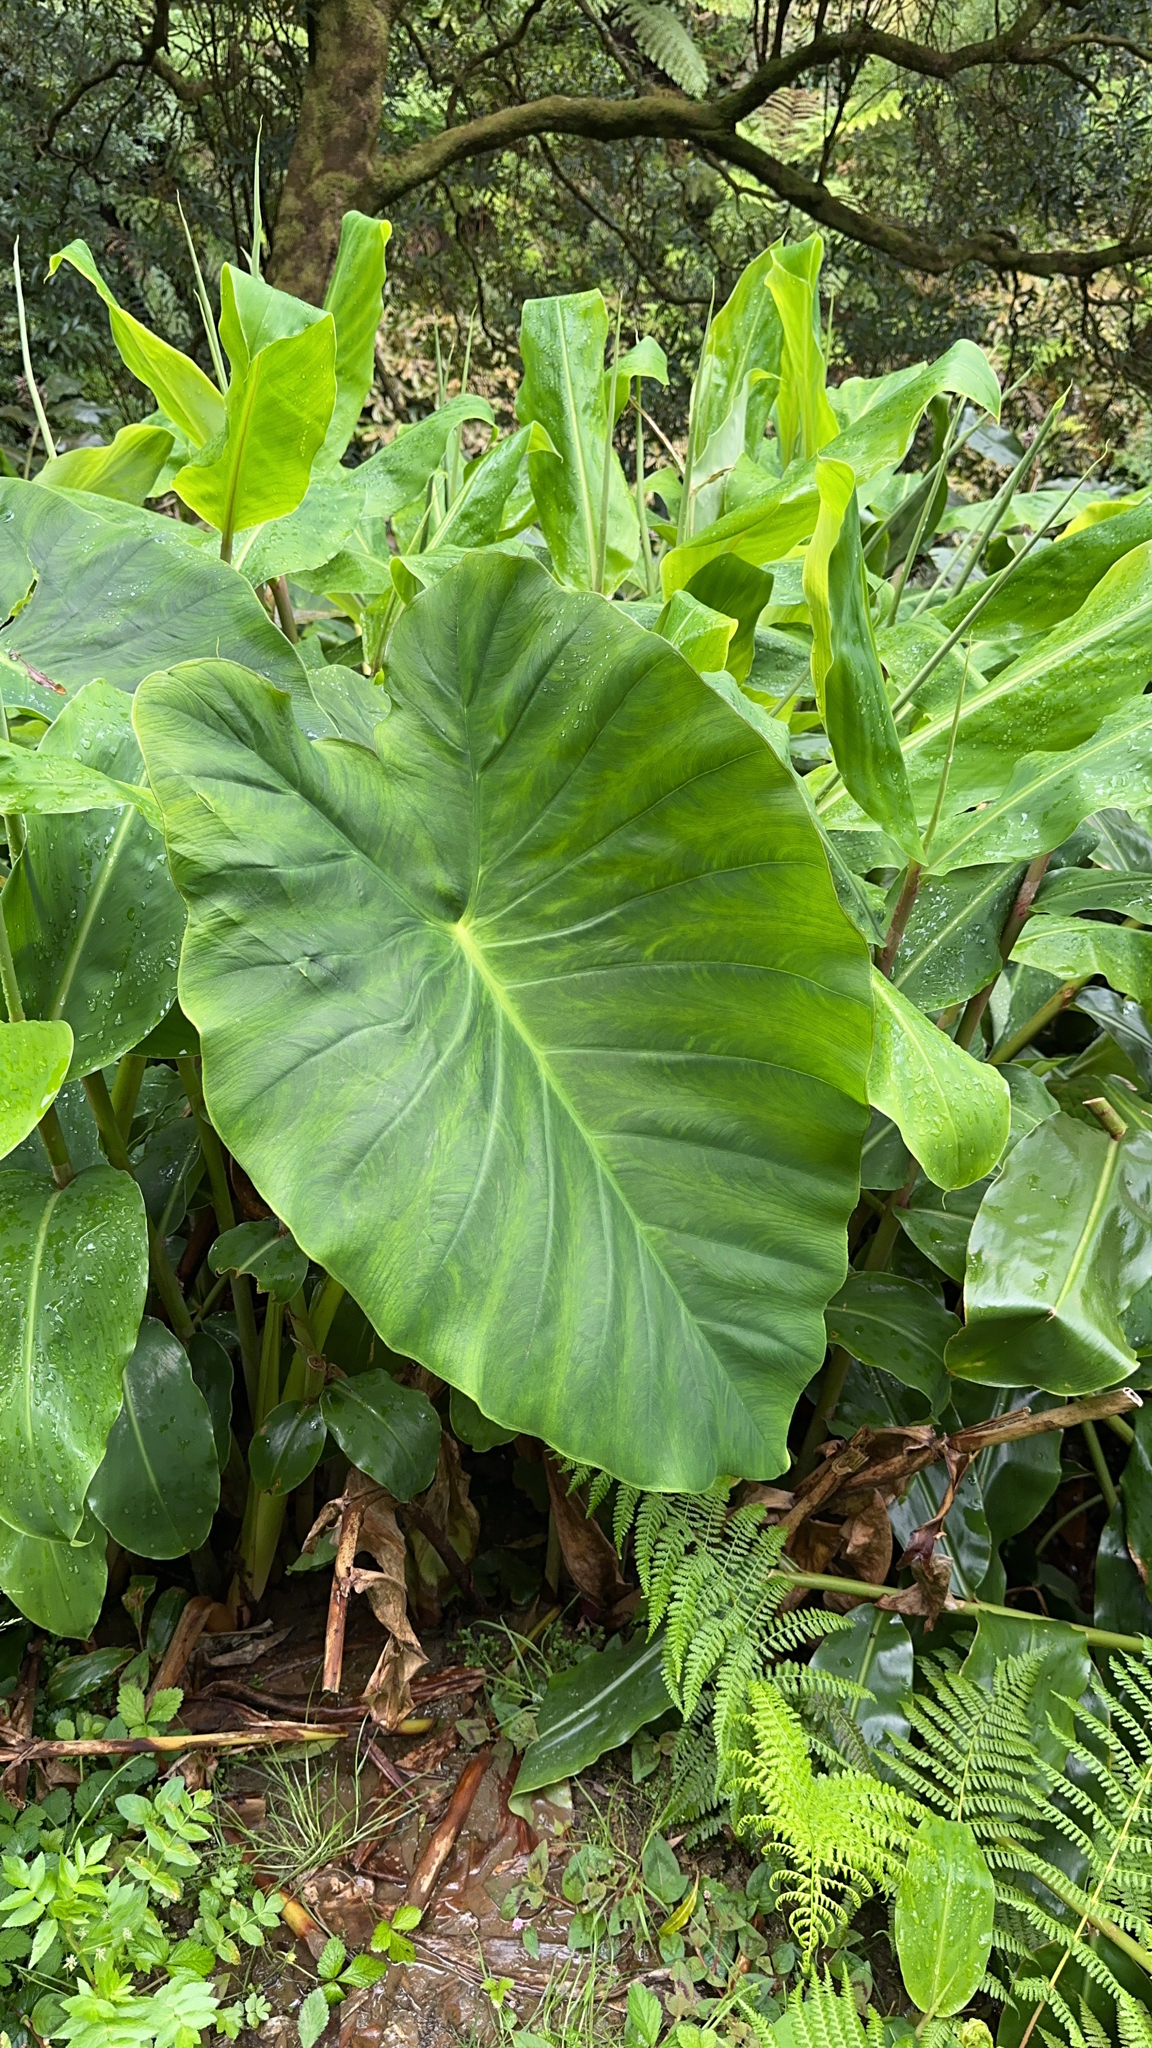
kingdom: Plantae
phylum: Tracheophyta
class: Liliopsida
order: Alismatales
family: Araceae
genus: Colocasia
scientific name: Colocasia esculenta
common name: Taro
